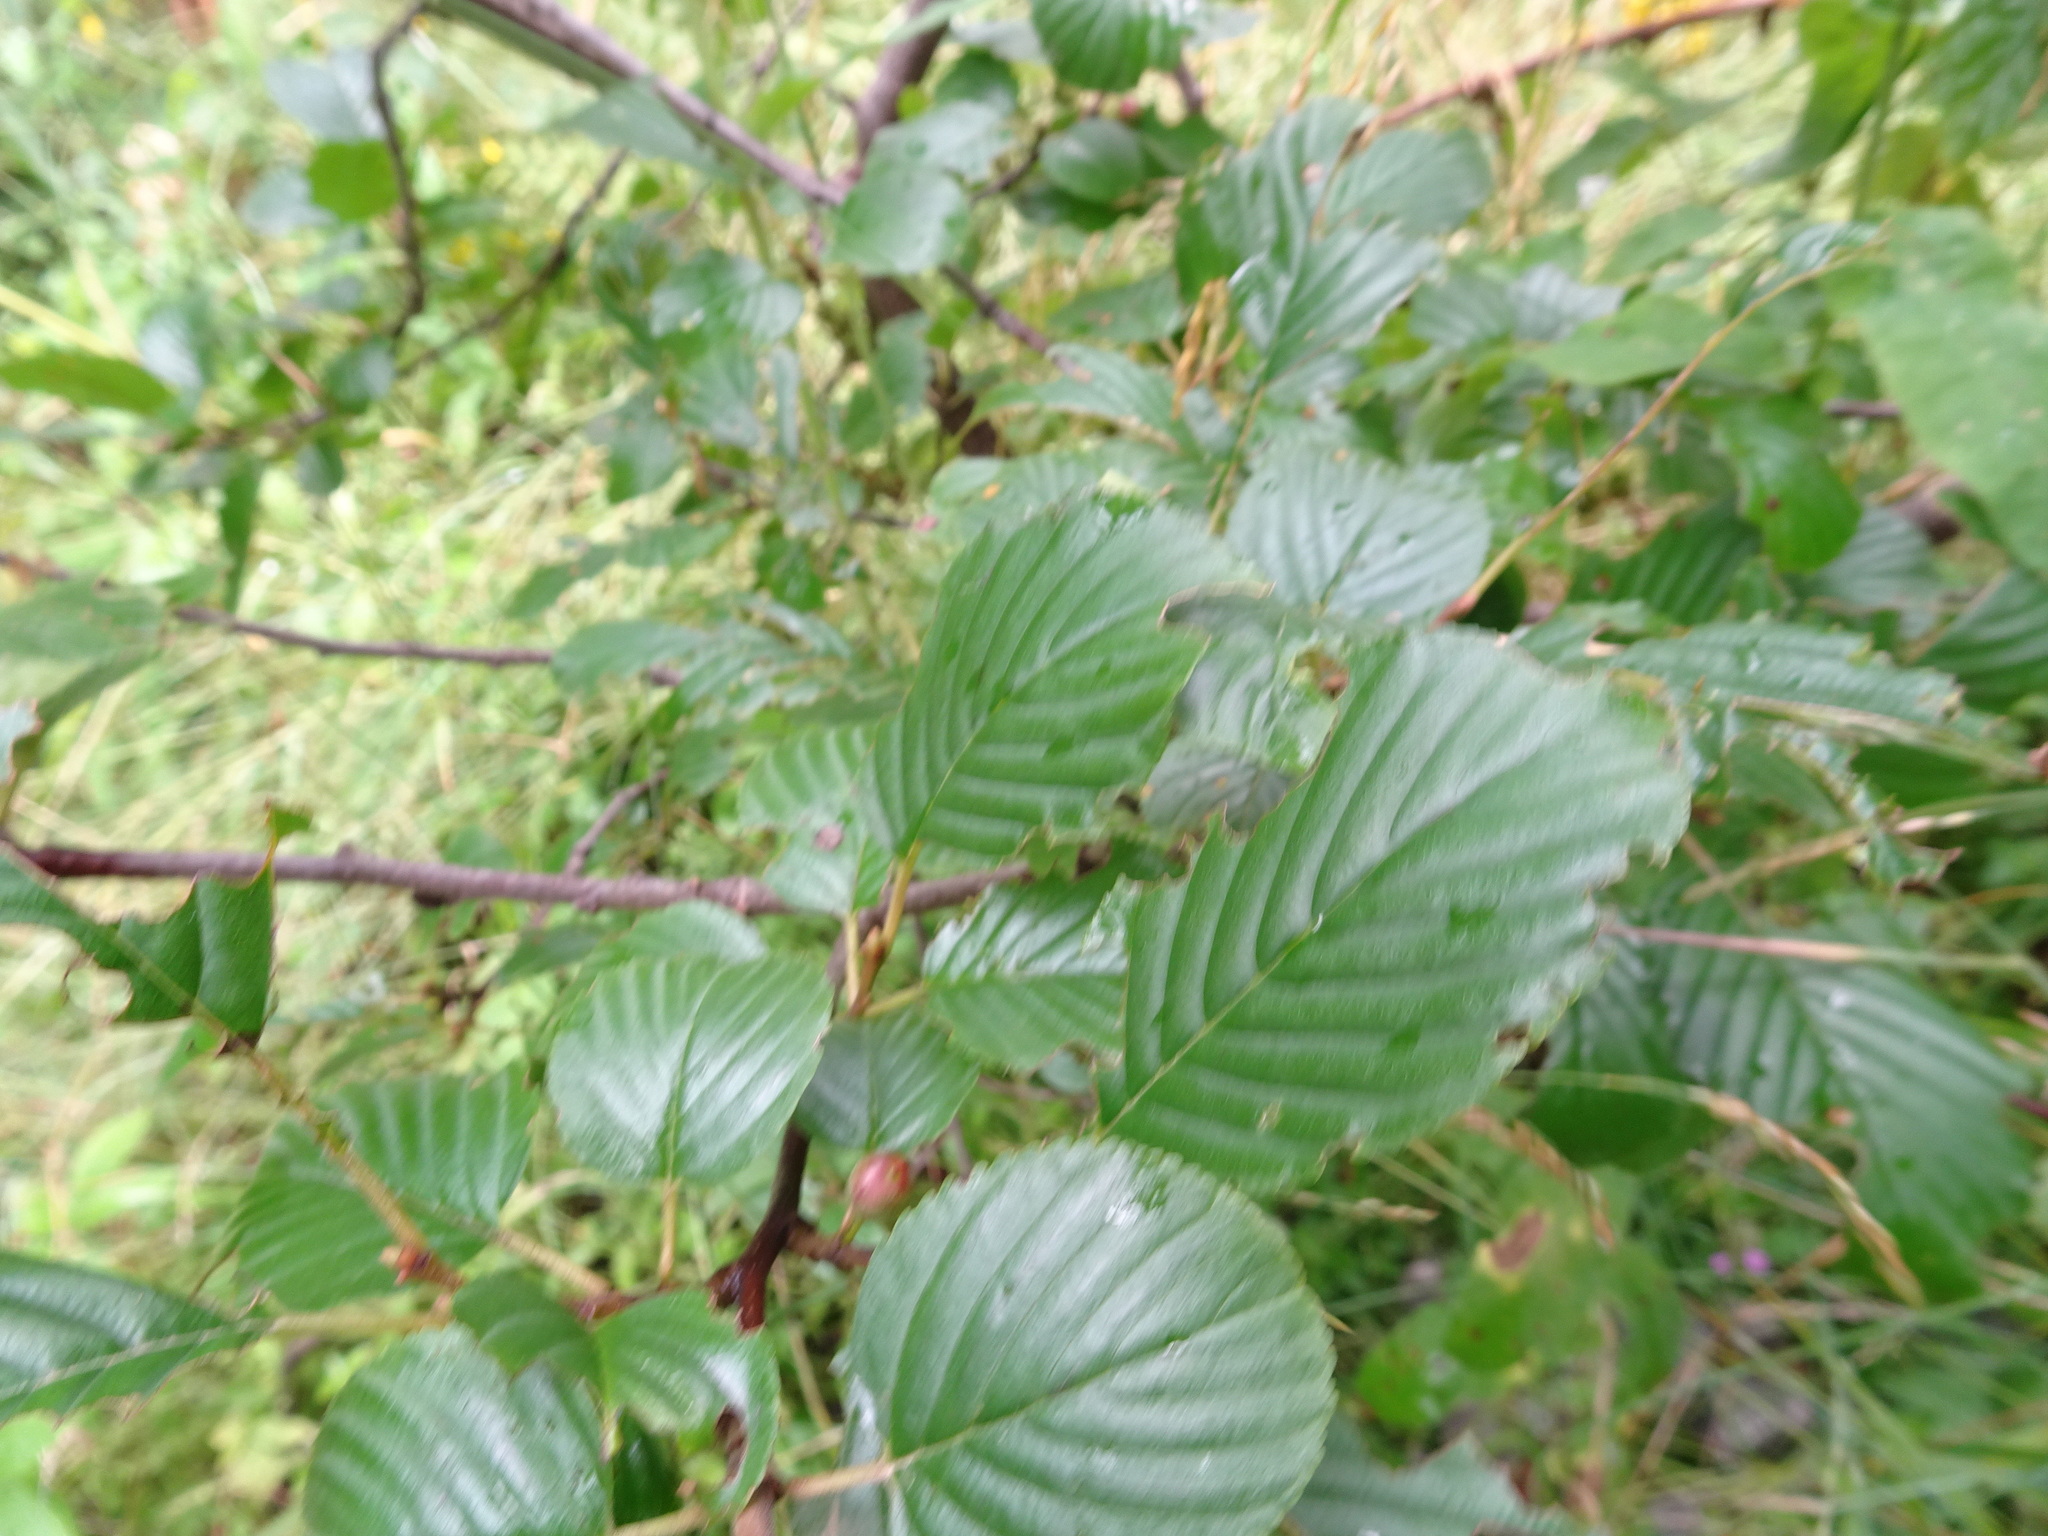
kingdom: Plantae
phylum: Tracheophyta
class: Magnoliopsida
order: Rosales
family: Rhamnaceae
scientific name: Rhamnaceae
